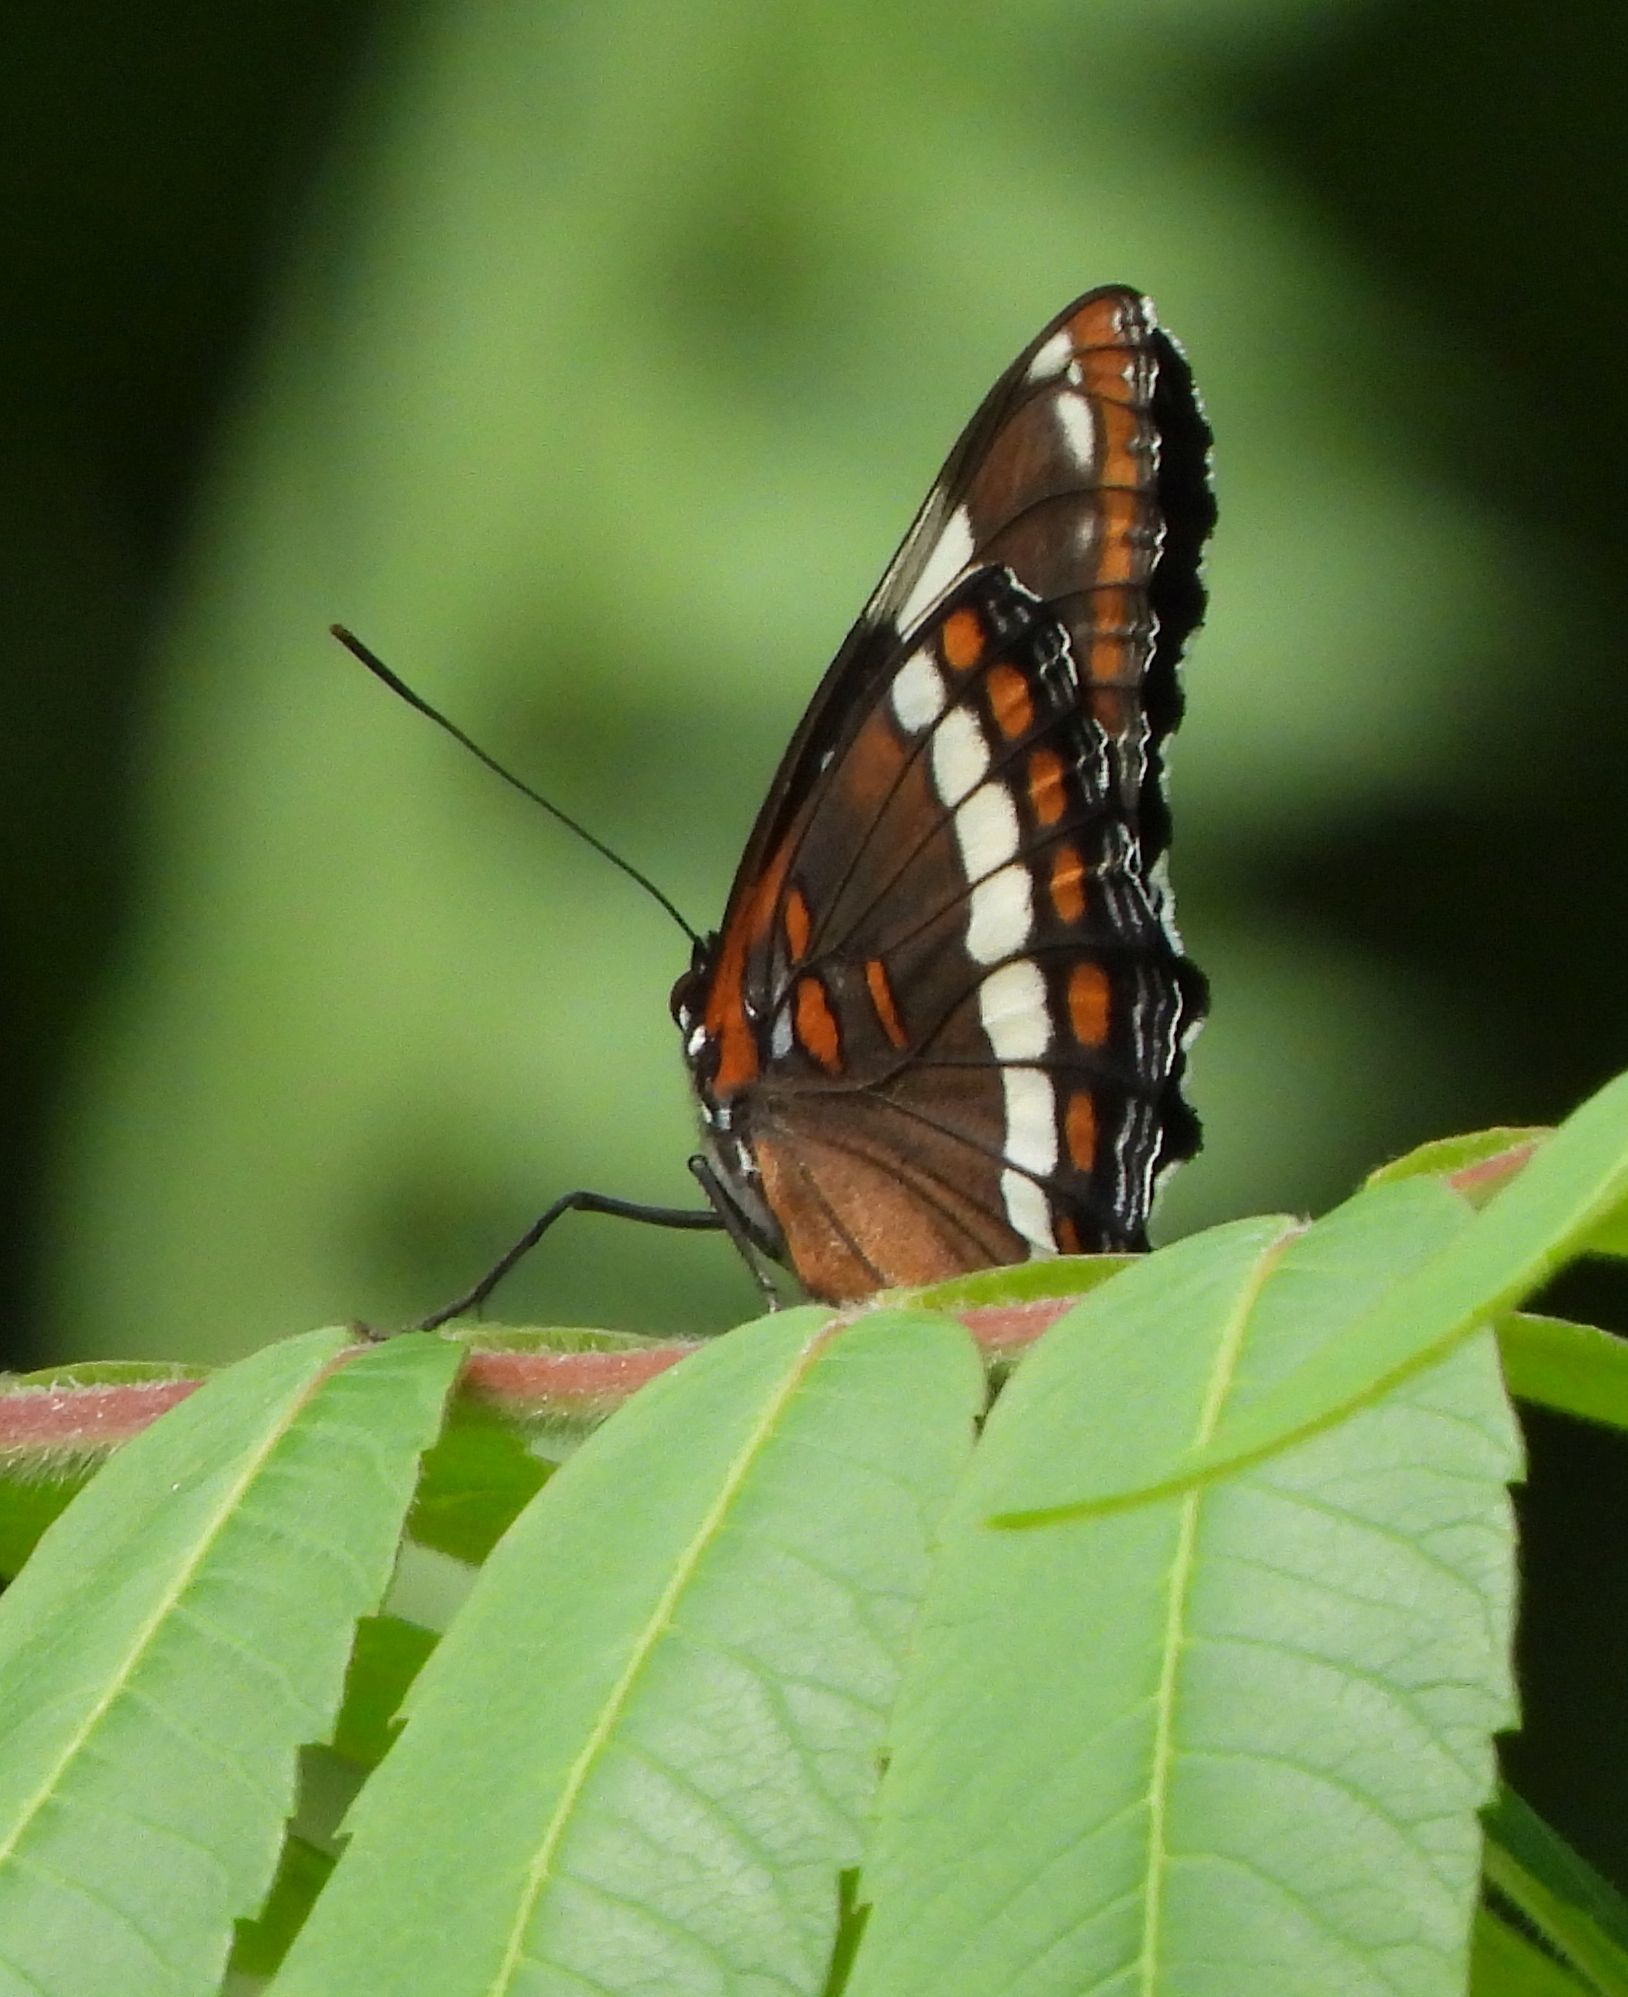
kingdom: Animalia
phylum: Arthropoda
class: Insecta
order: Lepidoptera
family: Nymphalidae
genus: Limenitis
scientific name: Limenitis arthemis
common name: Red-spotted admiral
